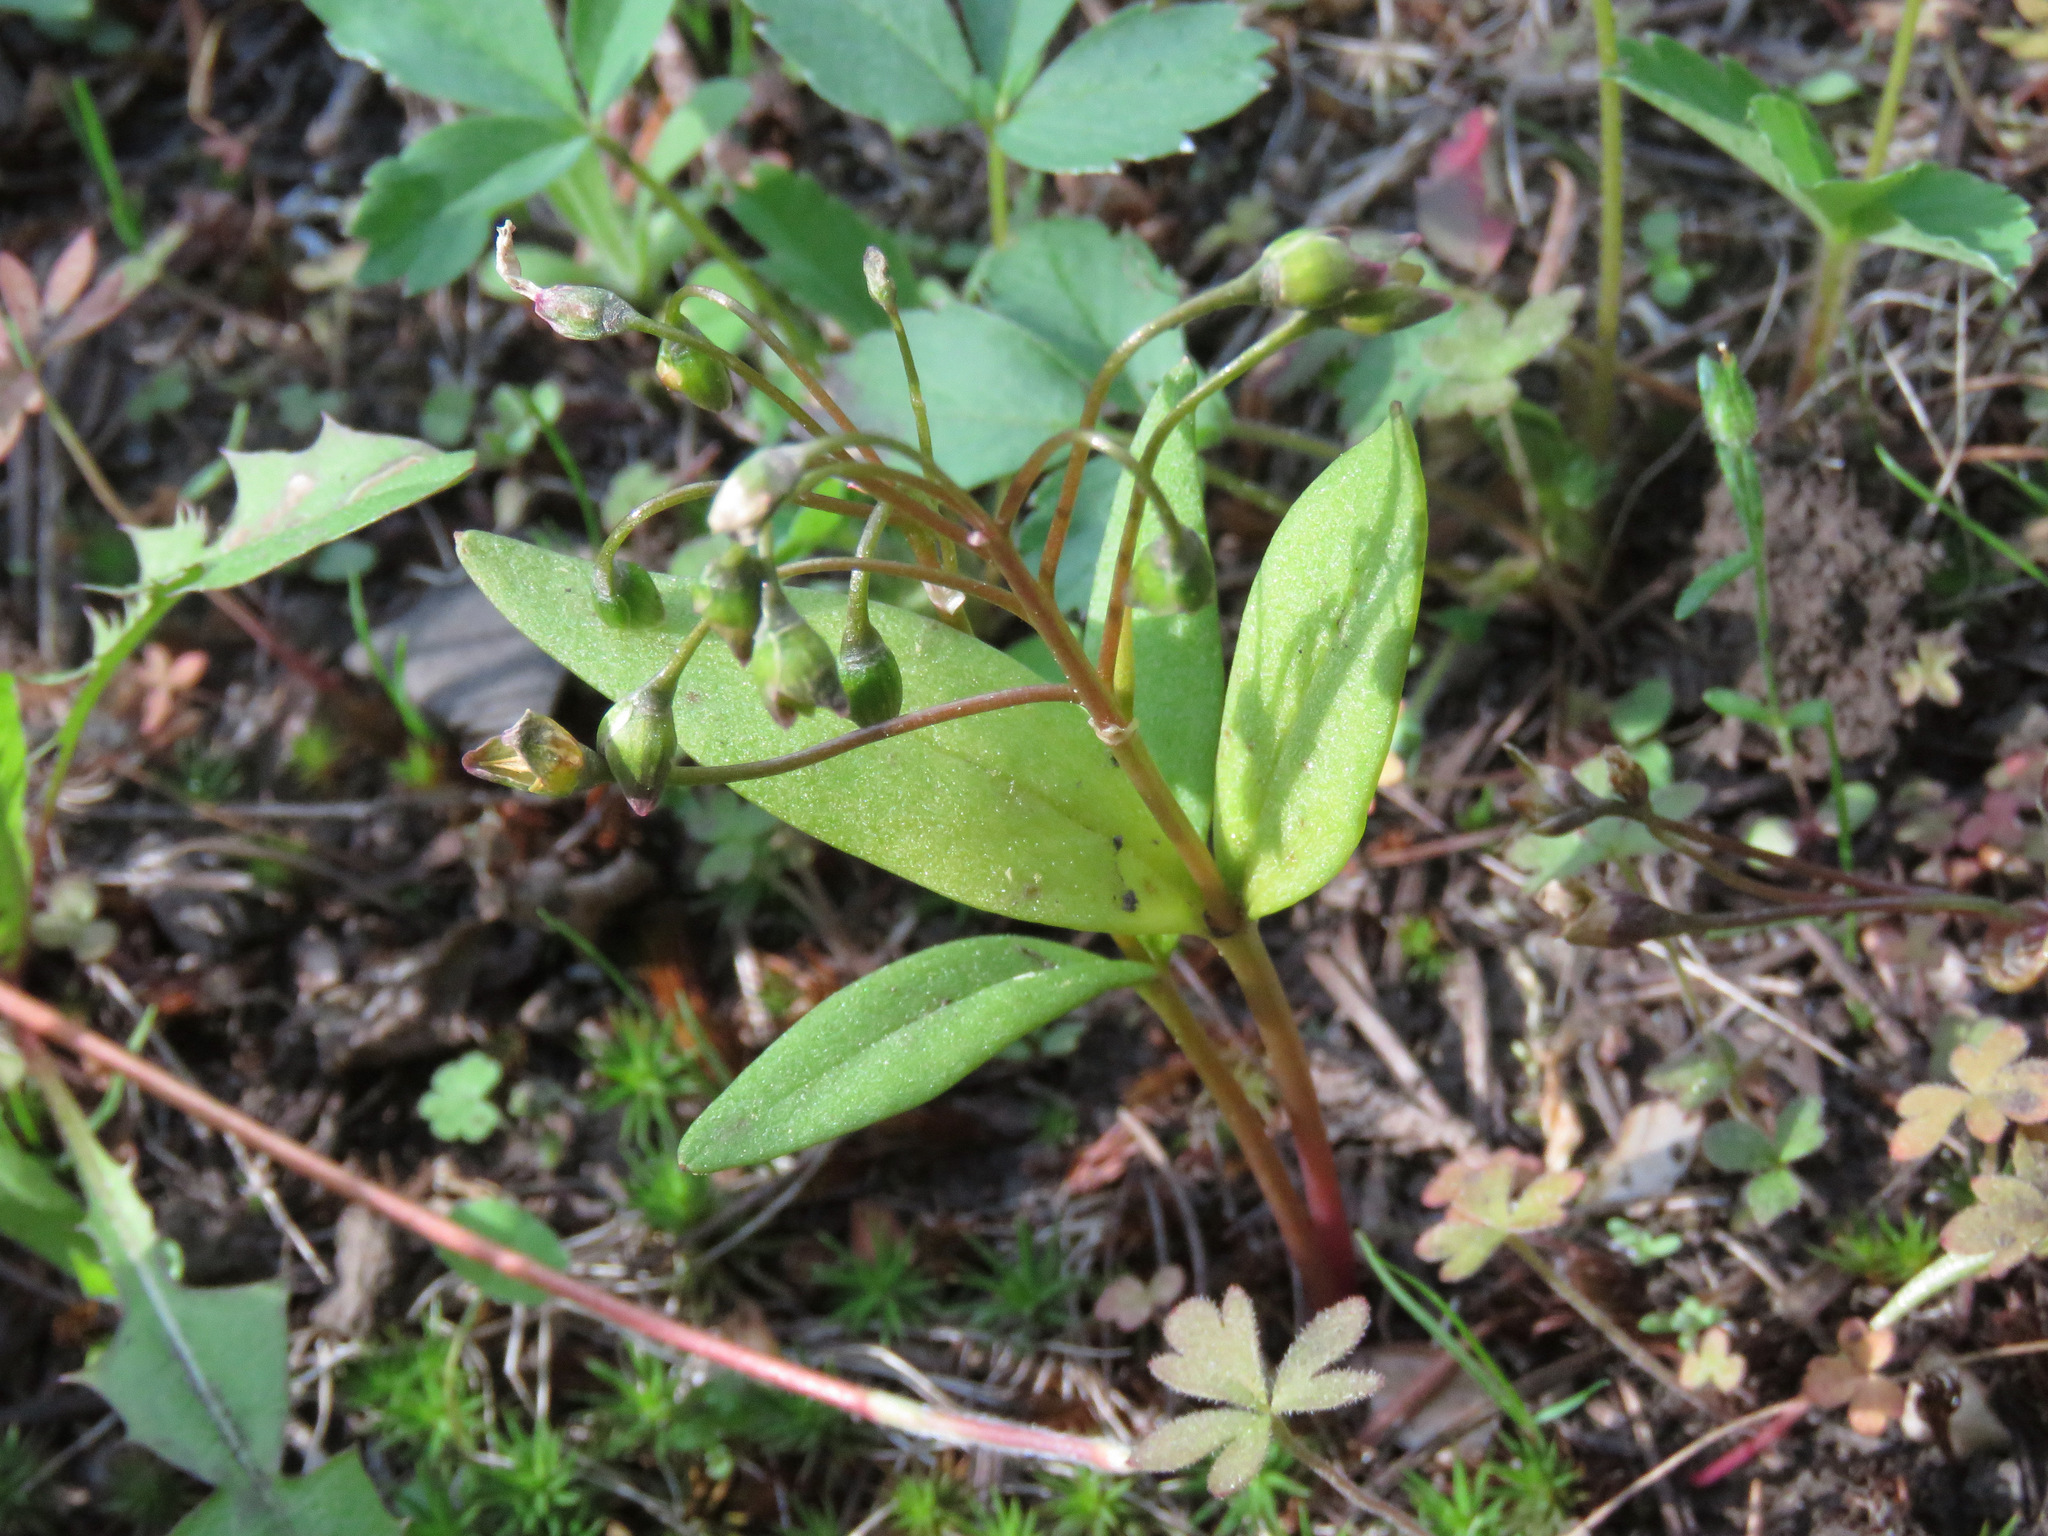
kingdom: Plantae
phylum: Tracheophyta
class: Magnoliopsida
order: Caryophyllales
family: Montiaceae
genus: Claytonia
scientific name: Claytonia lanceolata
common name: Western spring-beauty
